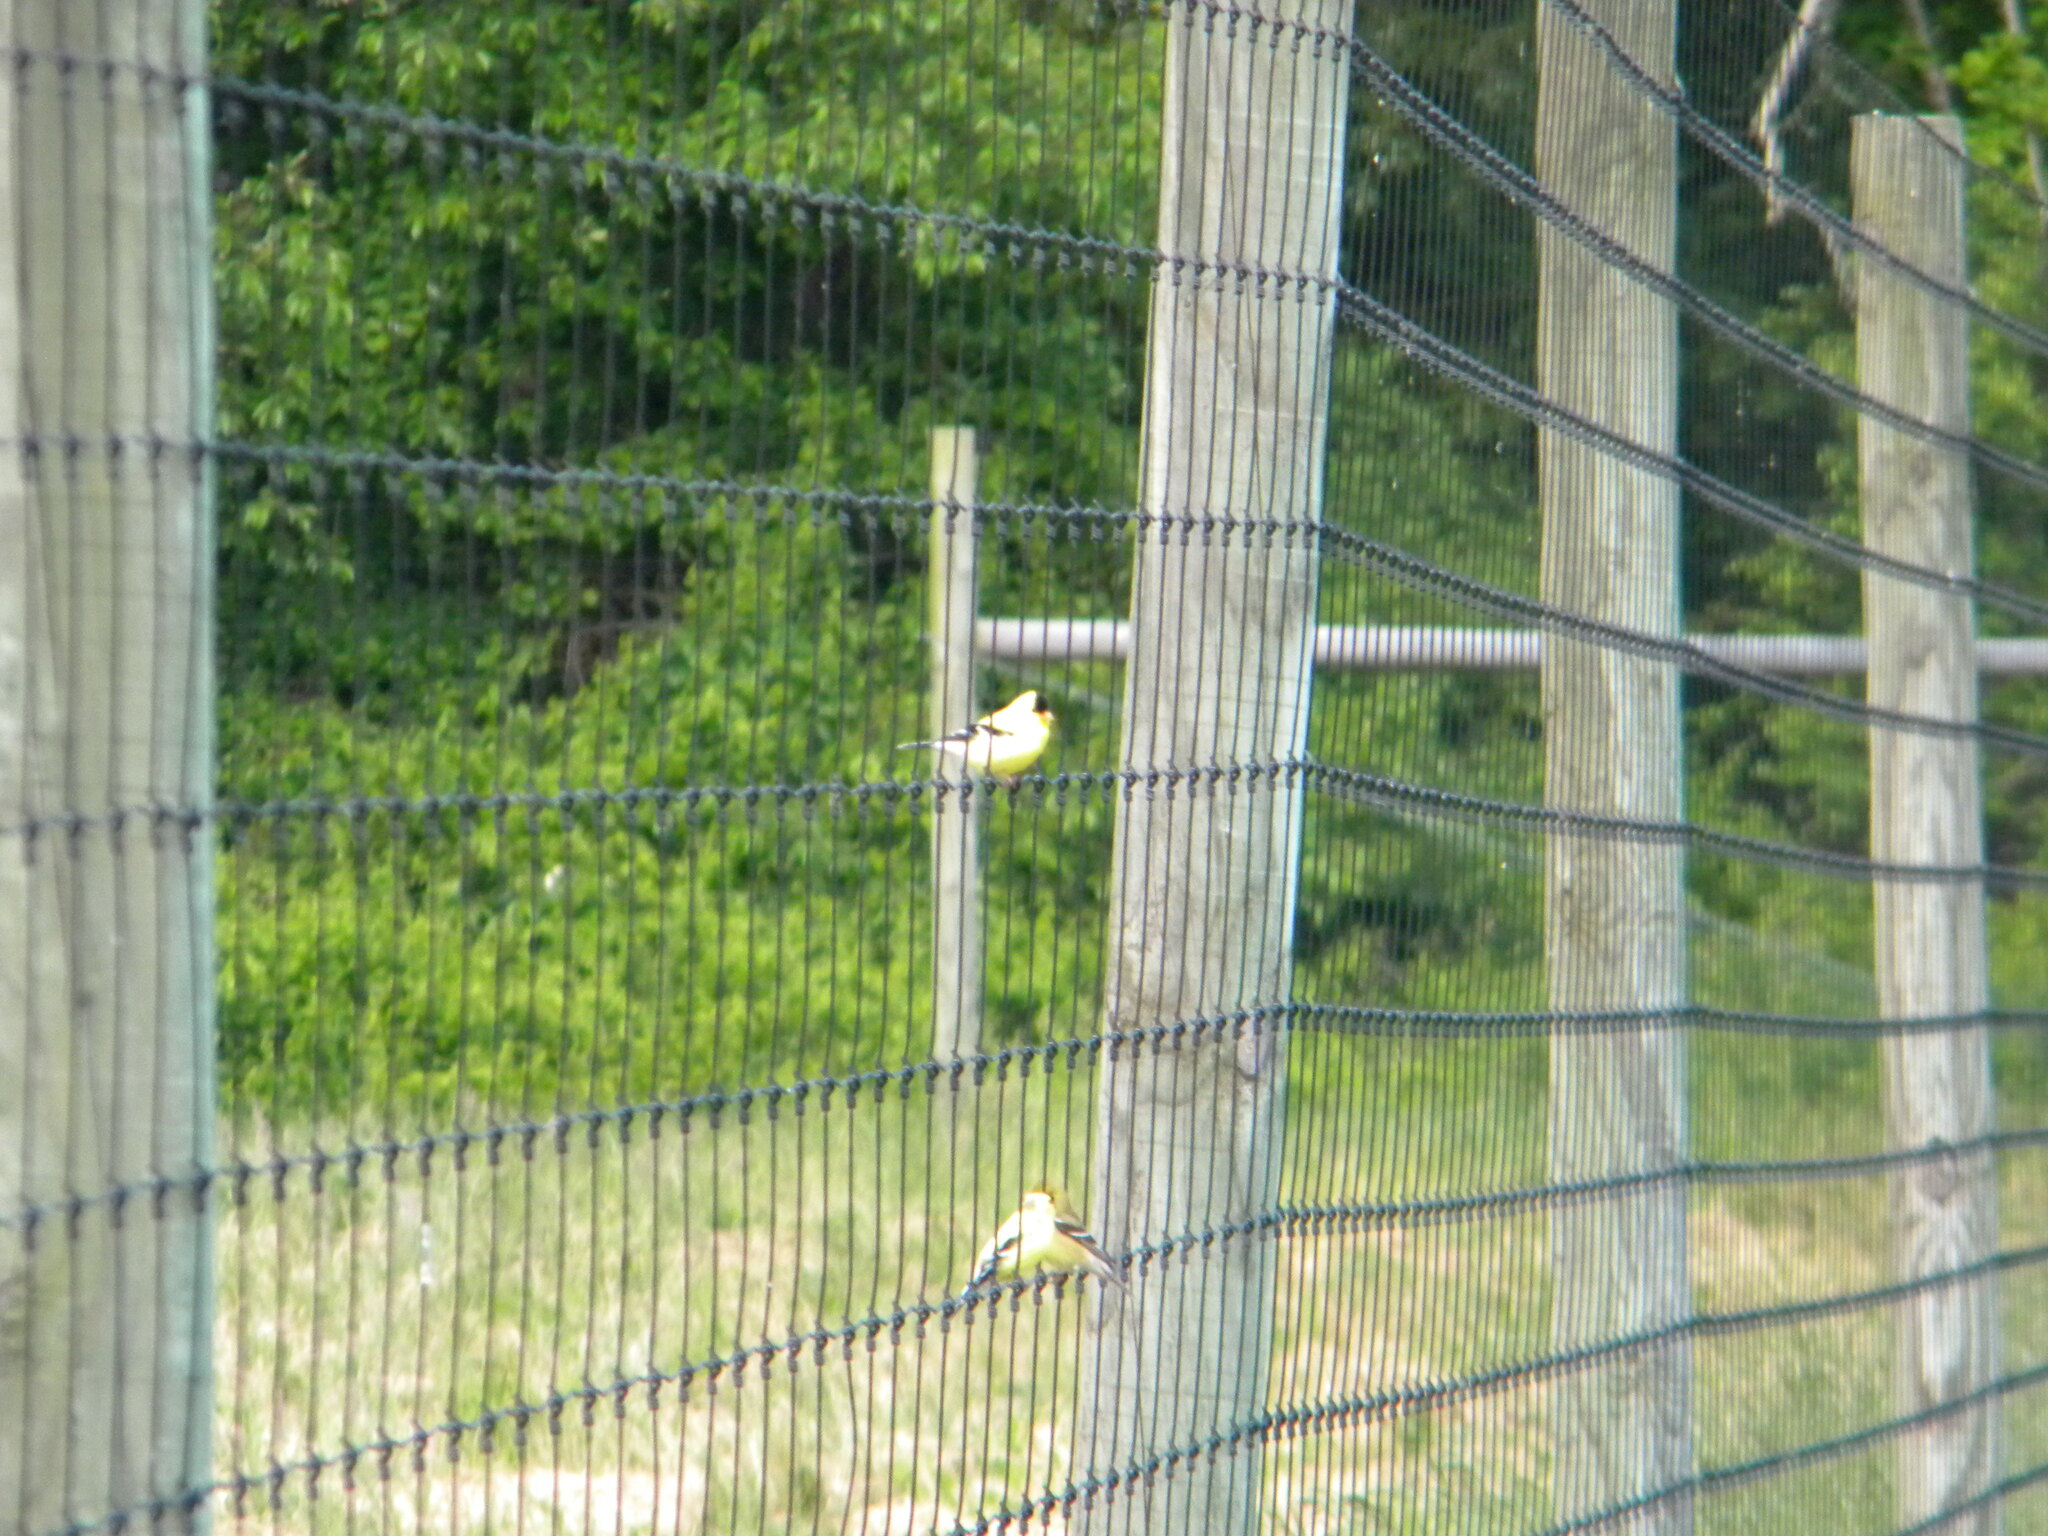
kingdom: Animalia
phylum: Chordata
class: Aves
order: Passeriformes
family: Fringillidae
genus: Spinus
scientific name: Spinus tristis
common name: American goldfinch
